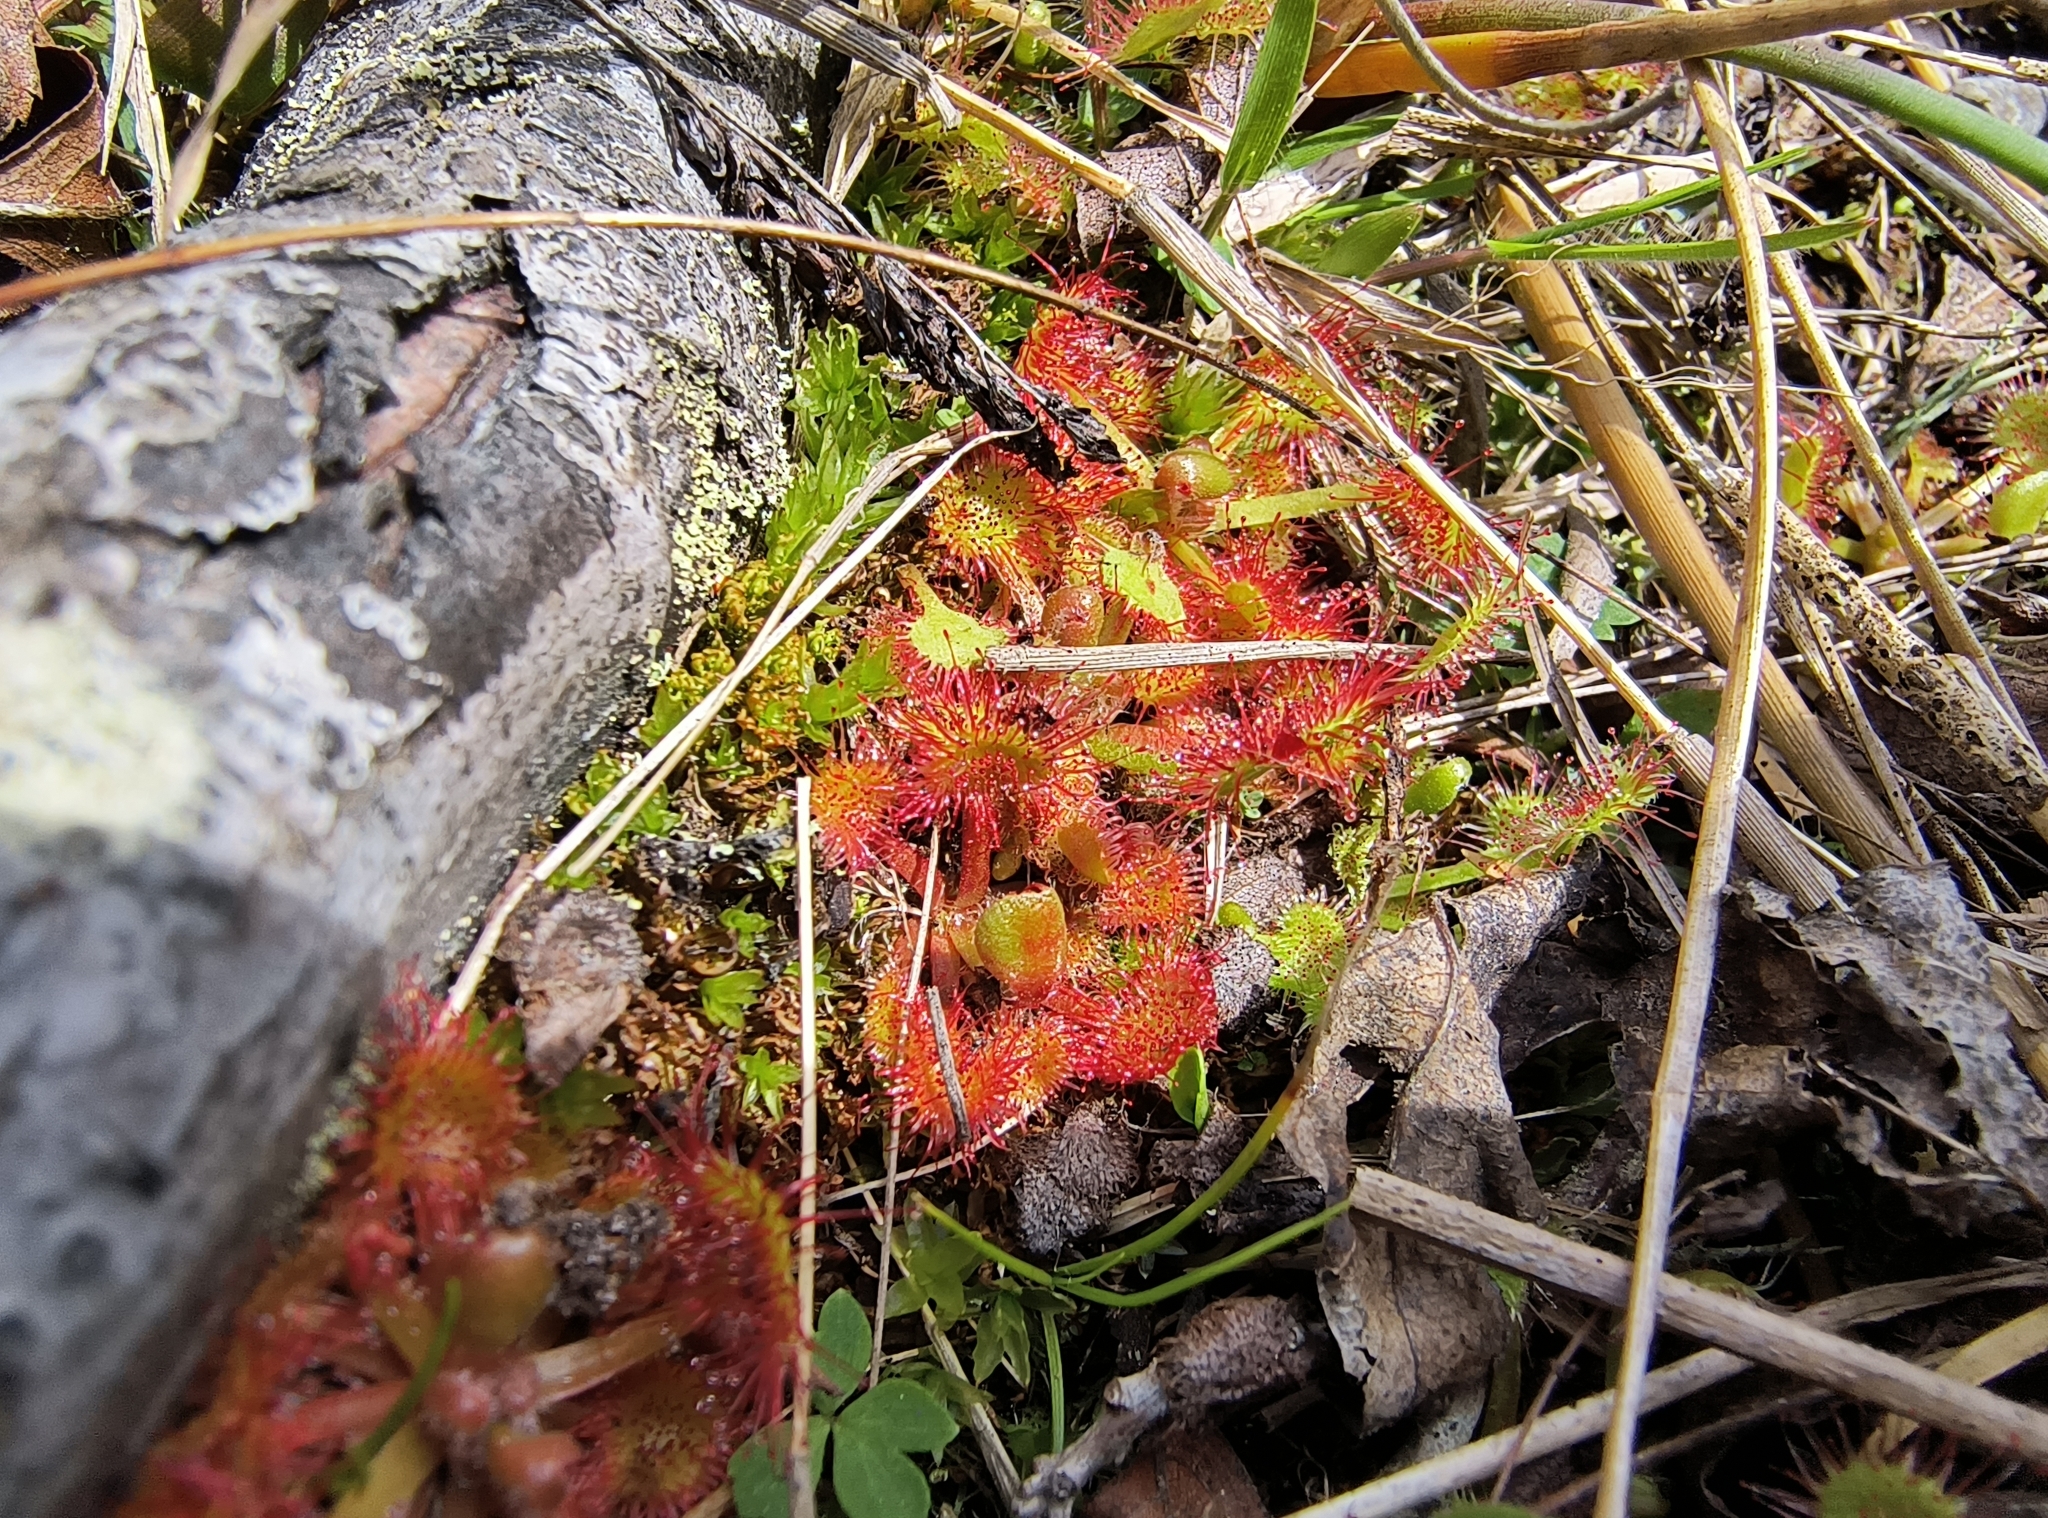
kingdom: Plantae
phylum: Tracheophyta
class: Magnoliopsida
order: Caryophyllales
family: Droseraceae
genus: Drosera
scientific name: Drosera rotundifolia
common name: Round-leaved sundew
